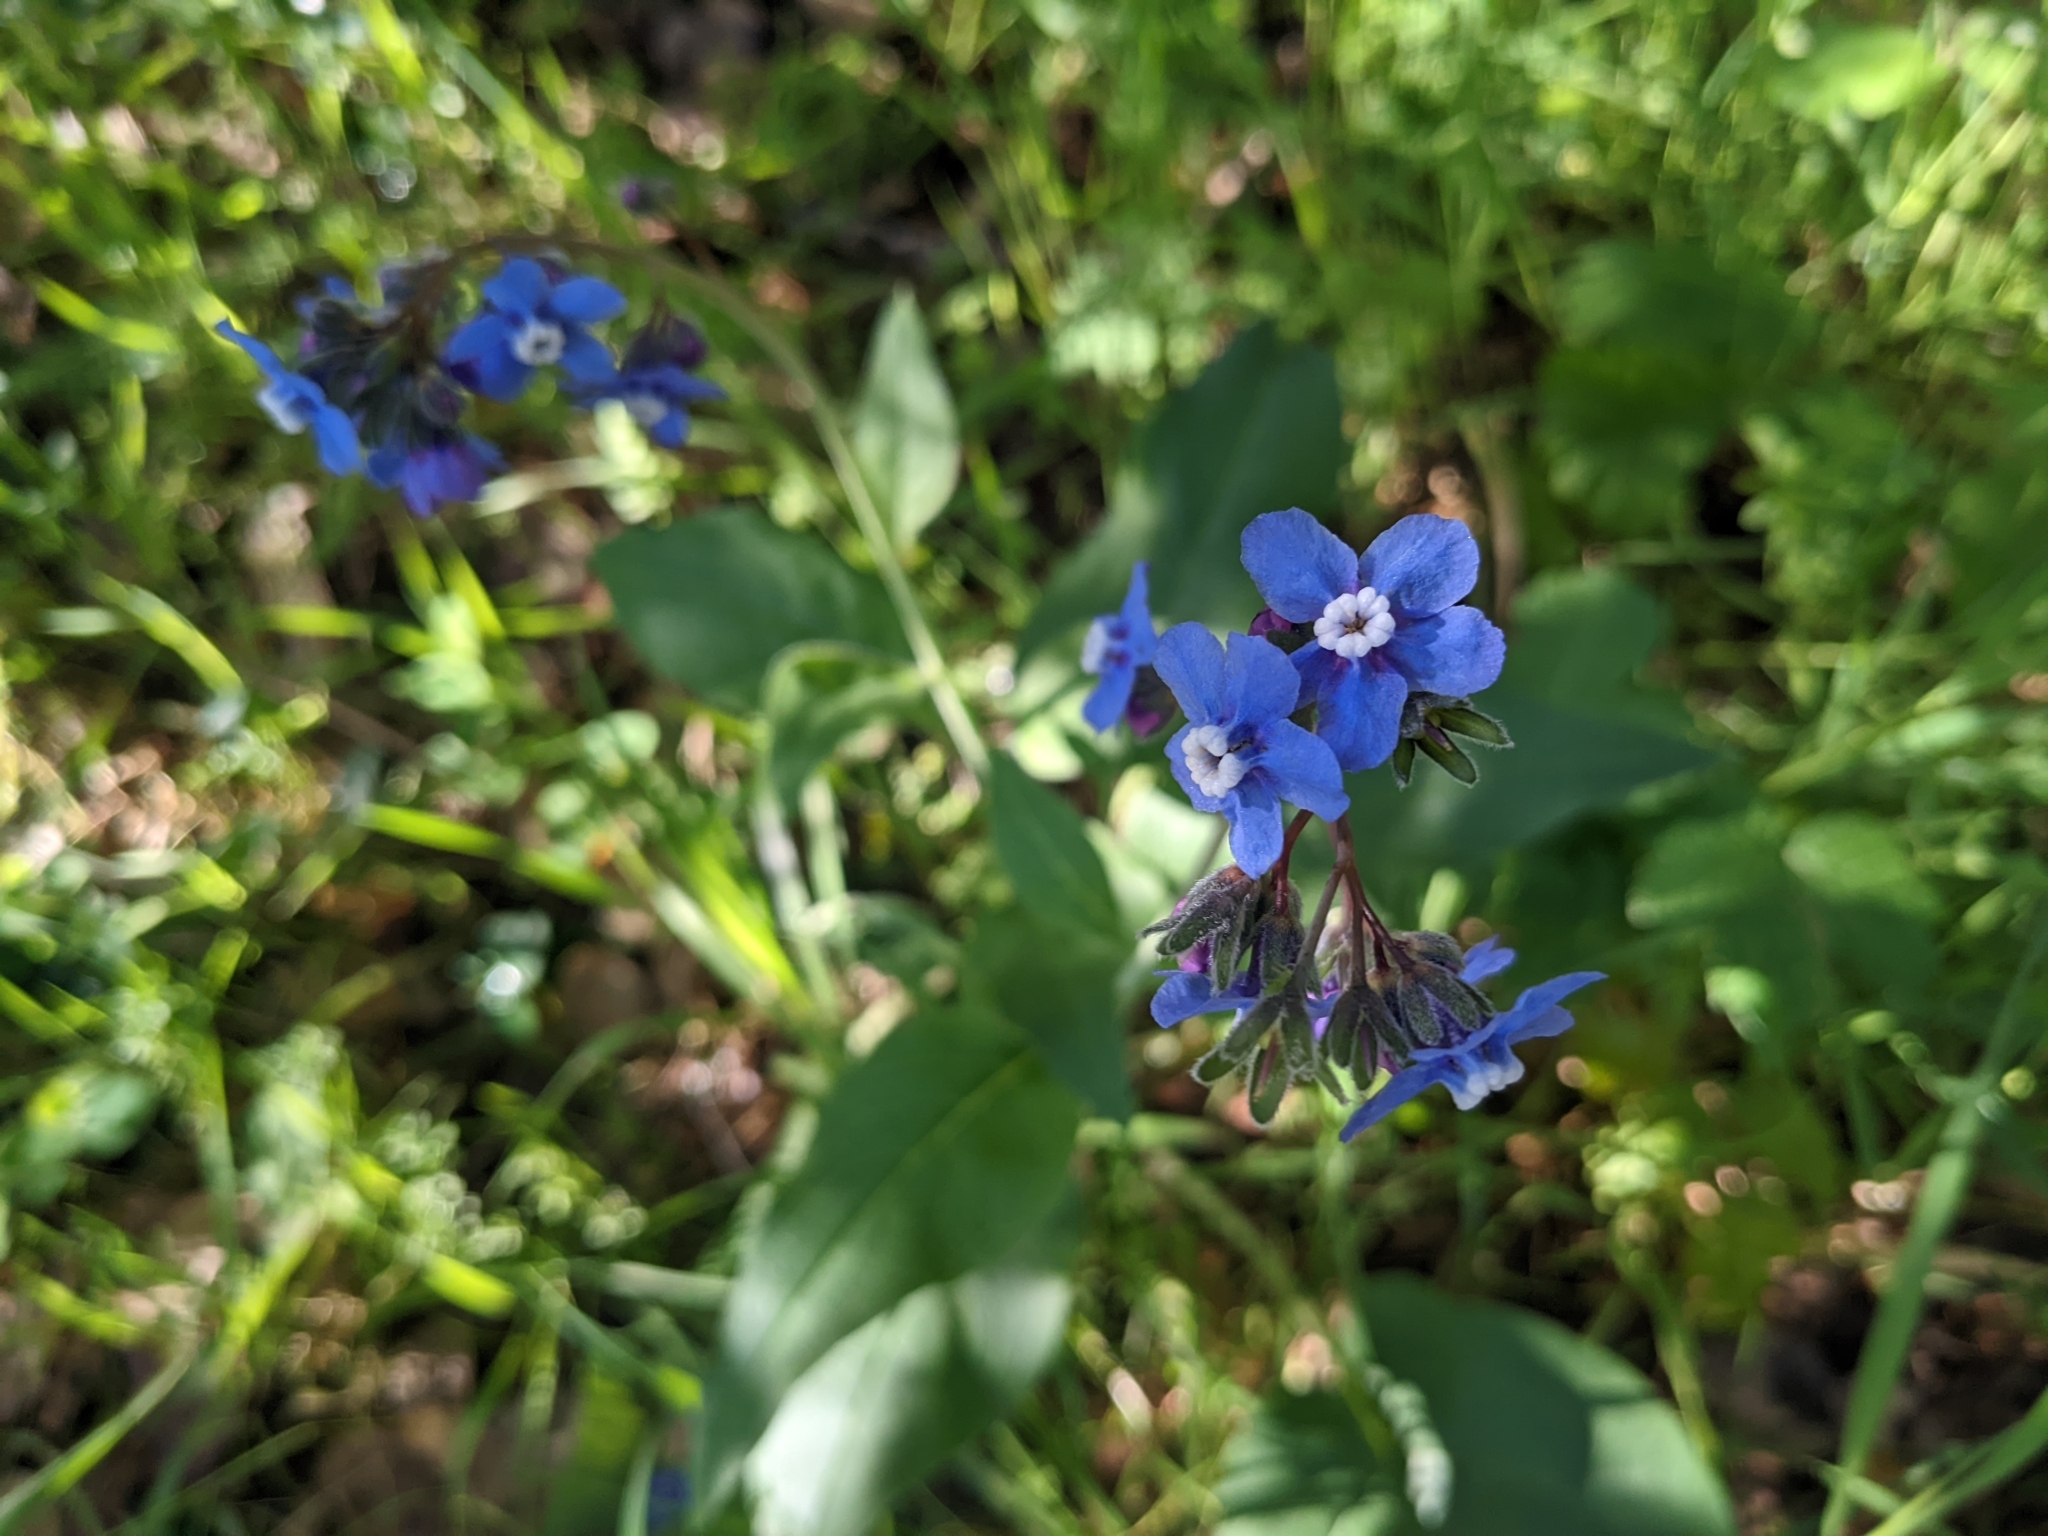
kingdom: Plantae
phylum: Tracheophyta
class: Magnoliopsida
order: Boraginales
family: Boraginaceae
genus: Adelinia
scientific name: Adelinia grande
